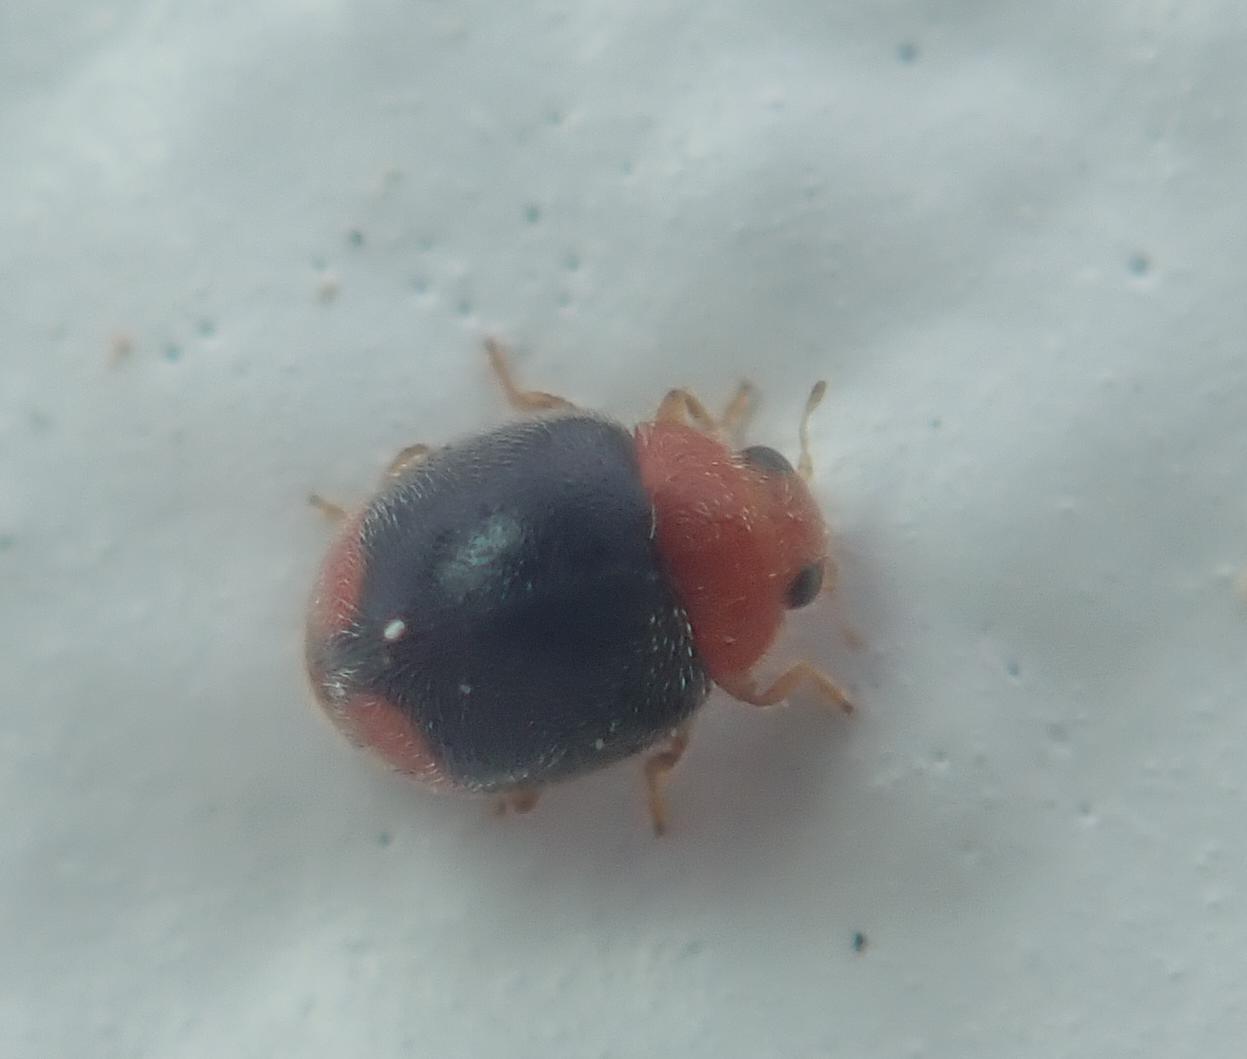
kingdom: Animalia
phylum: Arthropoda
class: Insecta
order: Coleoptera
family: Coccinellidae
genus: Cryptolaemus
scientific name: Cryptolaemus montrouzieri
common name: Mealybug destroyer
